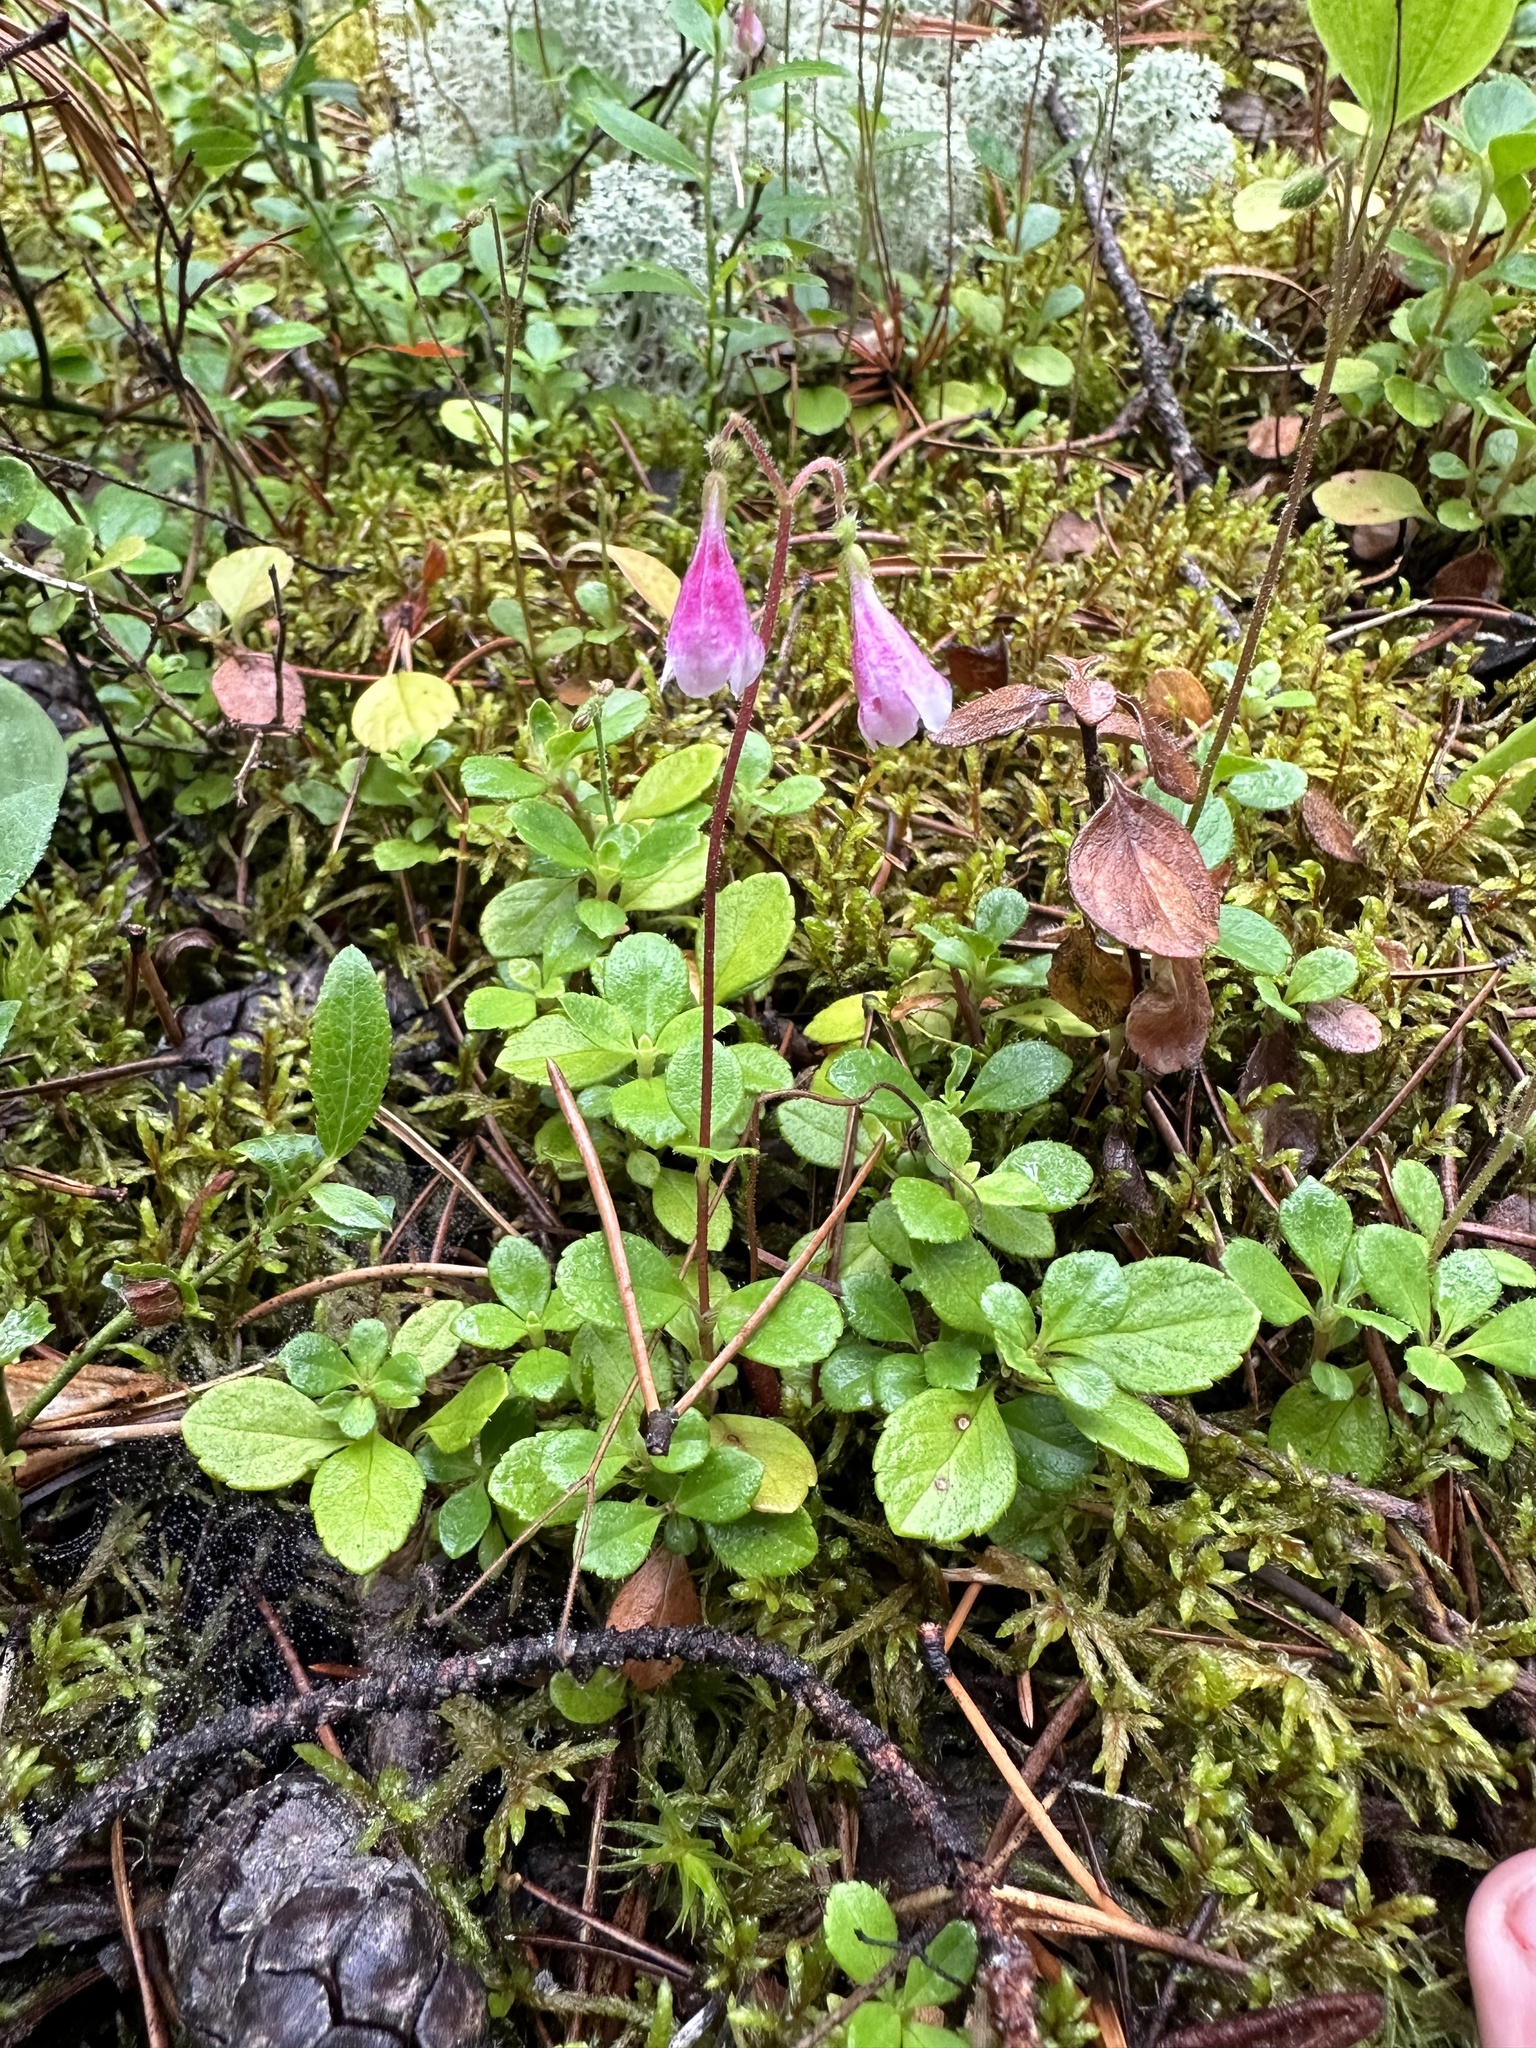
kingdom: Plantae
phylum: Tracheophyta
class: Magnoliopsida
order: Dipsacales
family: Caprifoliaceae
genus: Linnaea
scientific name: Linnaea borealis
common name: Twinflower
